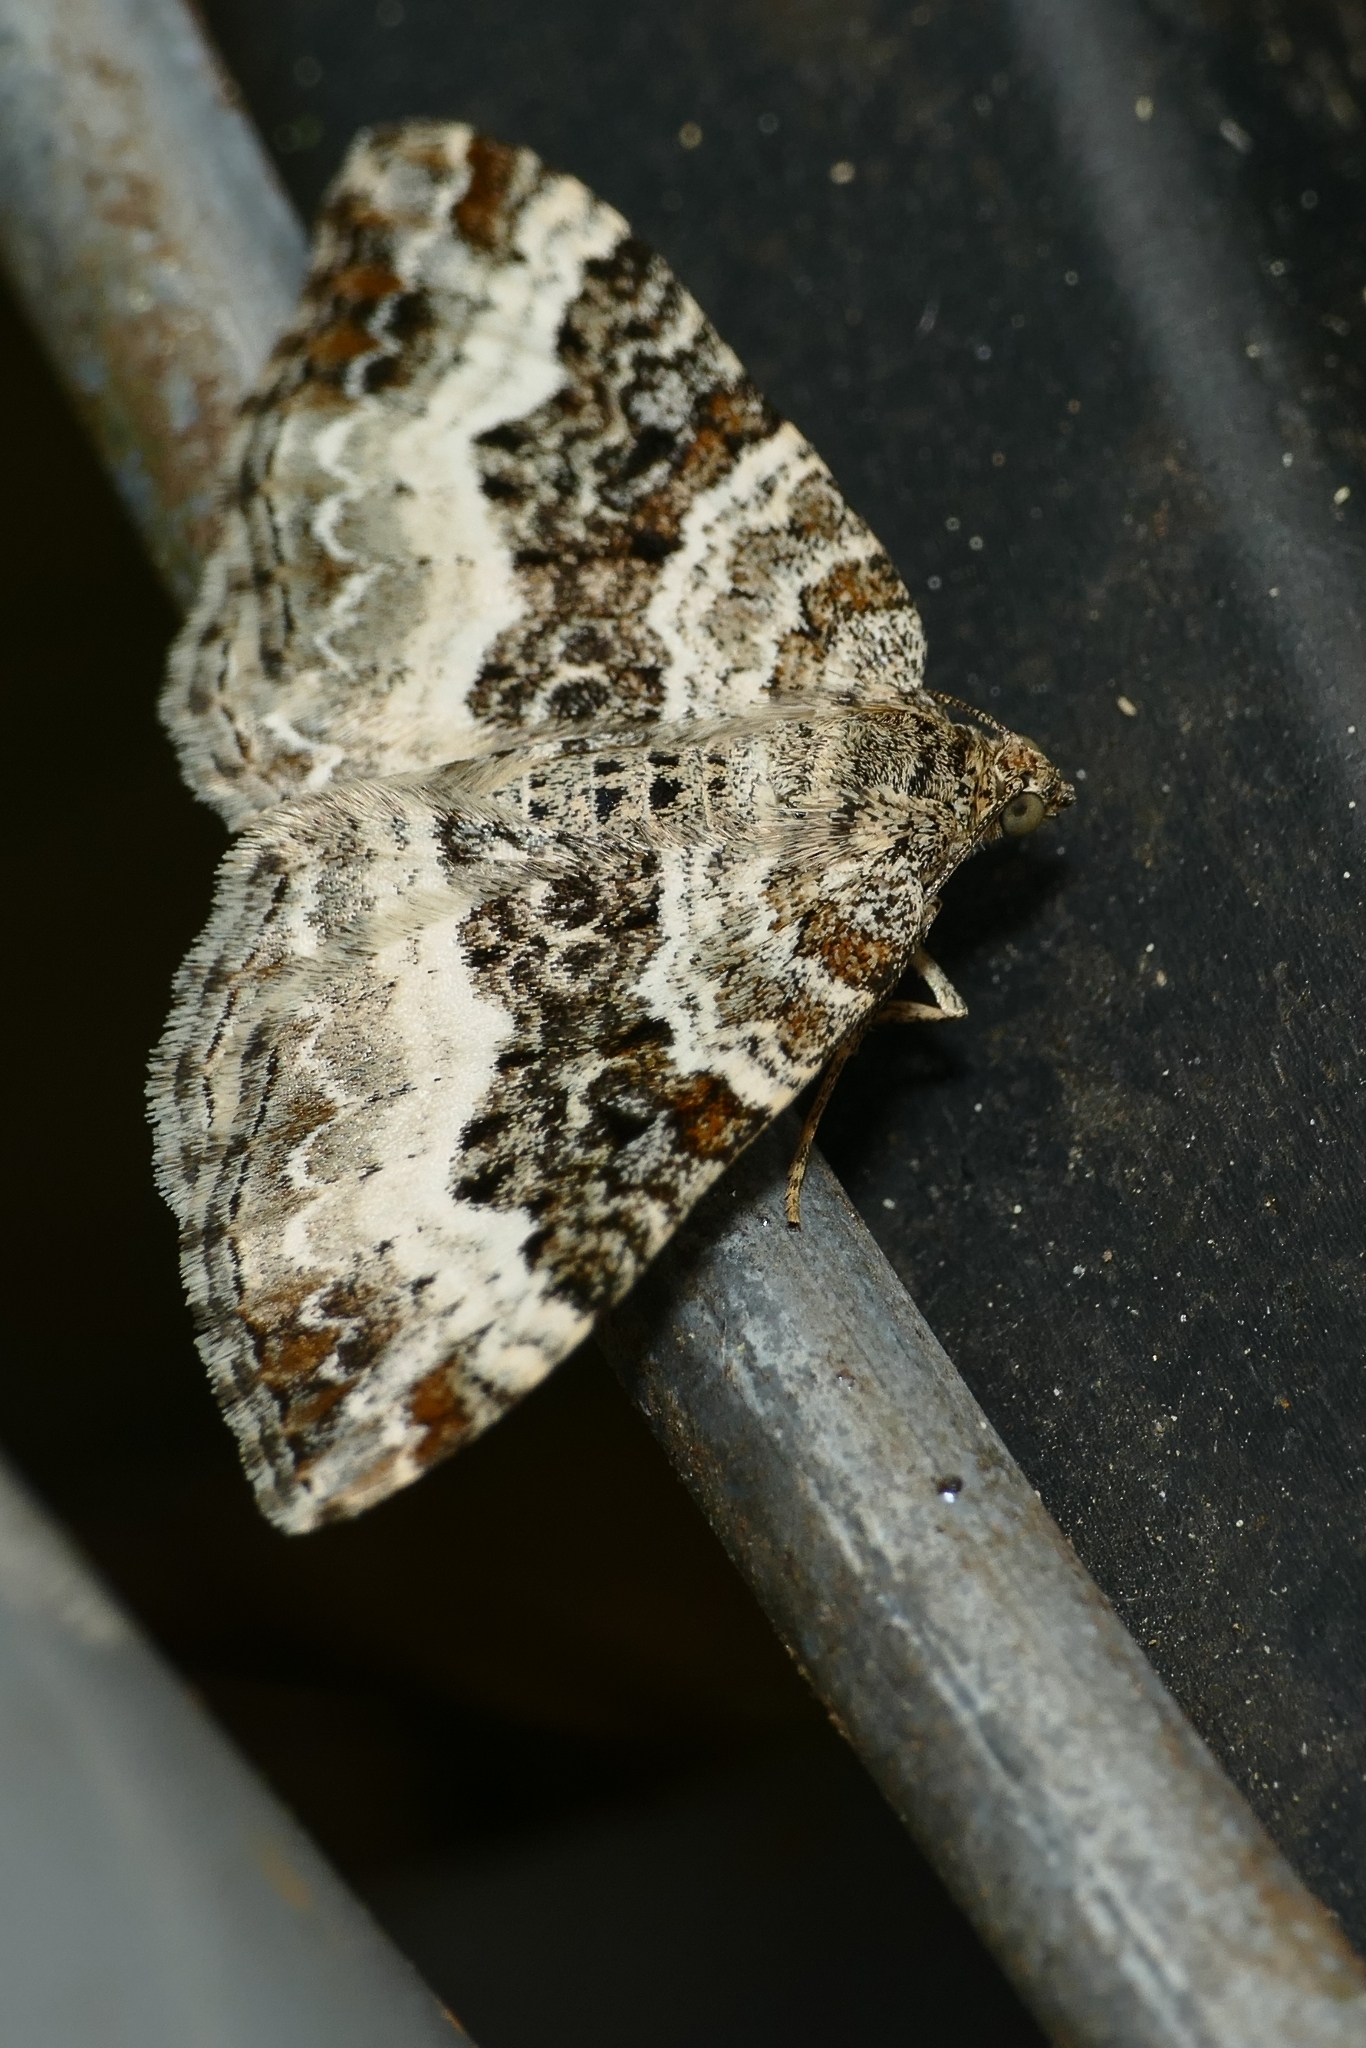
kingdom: Animalia
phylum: Arthropoda
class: Insecta
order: Lepidoptera
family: Geometridae
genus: Epirrhoe
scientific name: Epirrhoe alternata
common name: Common carpet
